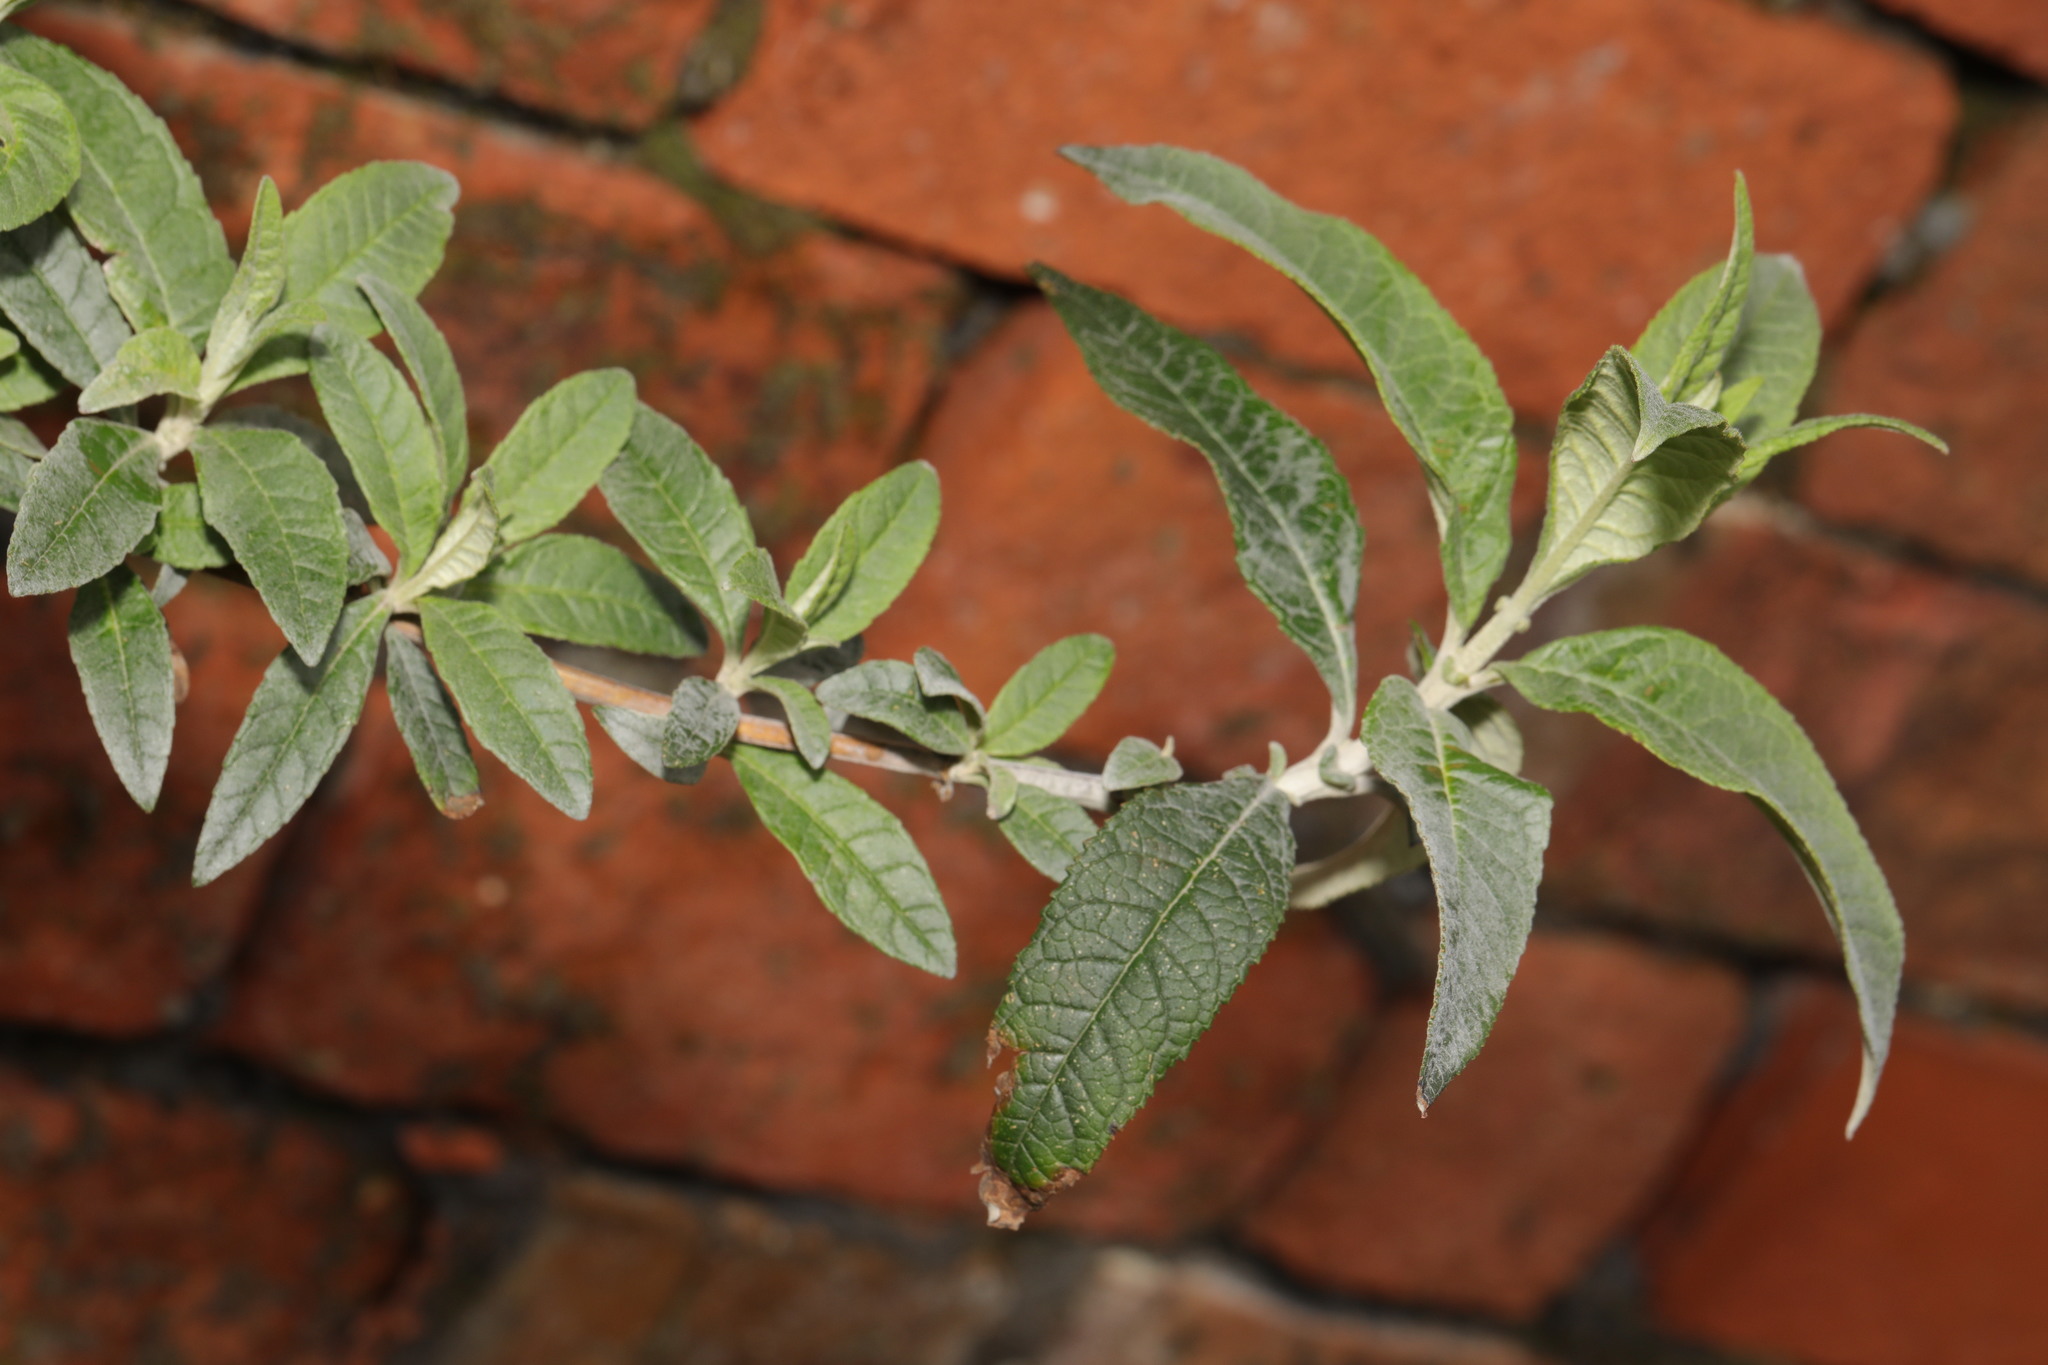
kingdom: Plantae
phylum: Tracheophyta
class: Magnoliopsida
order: Lamiales
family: Scrophulariaceae
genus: Buddleja
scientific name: Buddleja davidii
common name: Butterfly-bush
